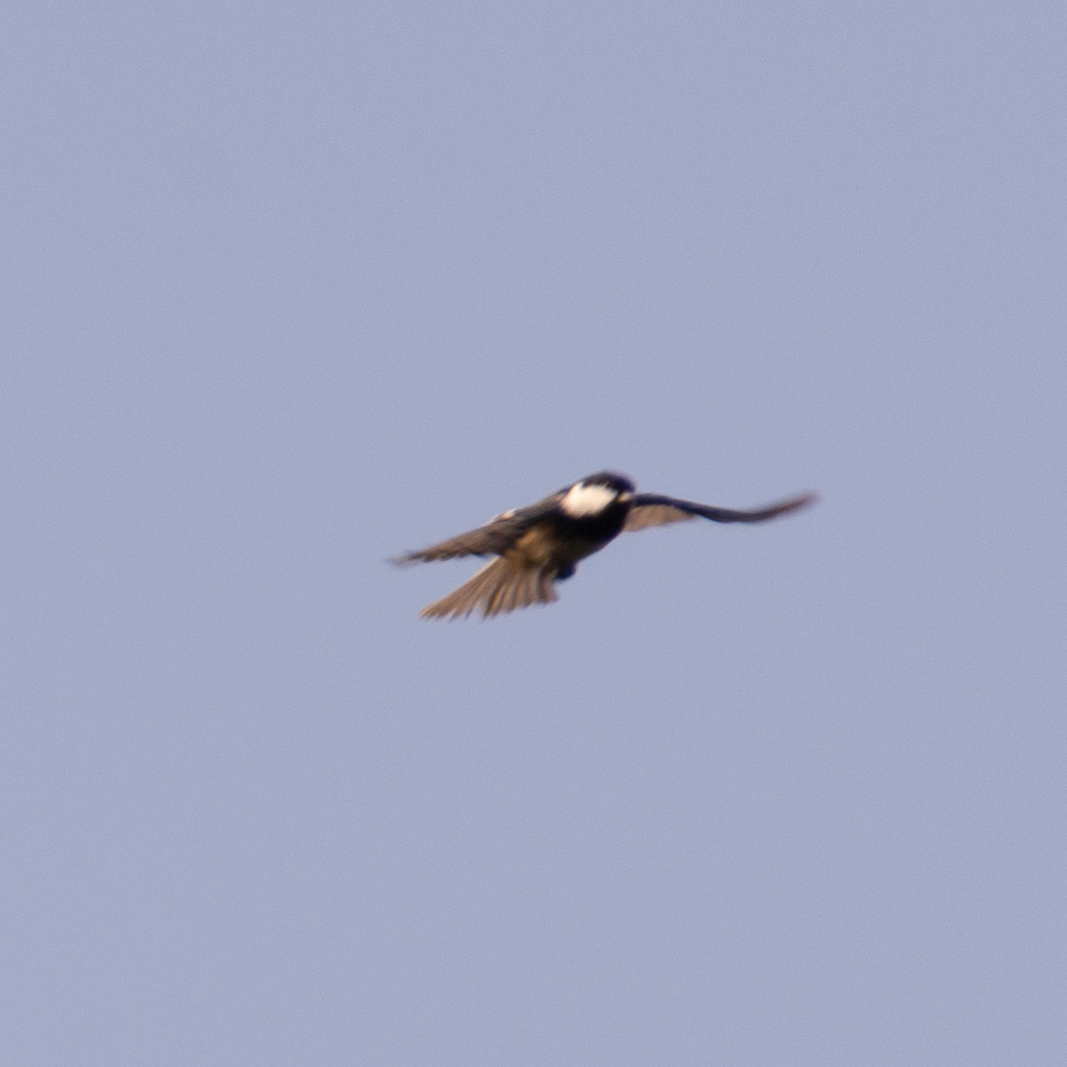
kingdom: Animalia
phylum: Chordata
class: Aves
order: Passeriformes
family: Paridae
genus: Periparus
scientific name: Periparus ater
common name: Coal tit
